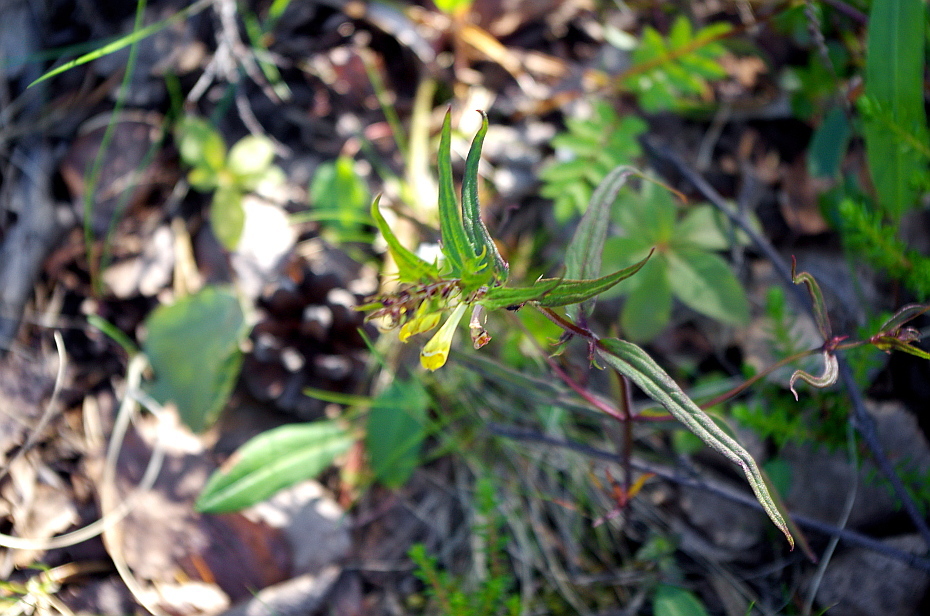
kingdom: Plantae
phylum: Tracheophyta
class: Magnoliopsida
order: Lamiales
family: Orobanchaceae
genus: Melampyrum
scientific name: Melampyrum pratense
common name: Common cow-wheat
